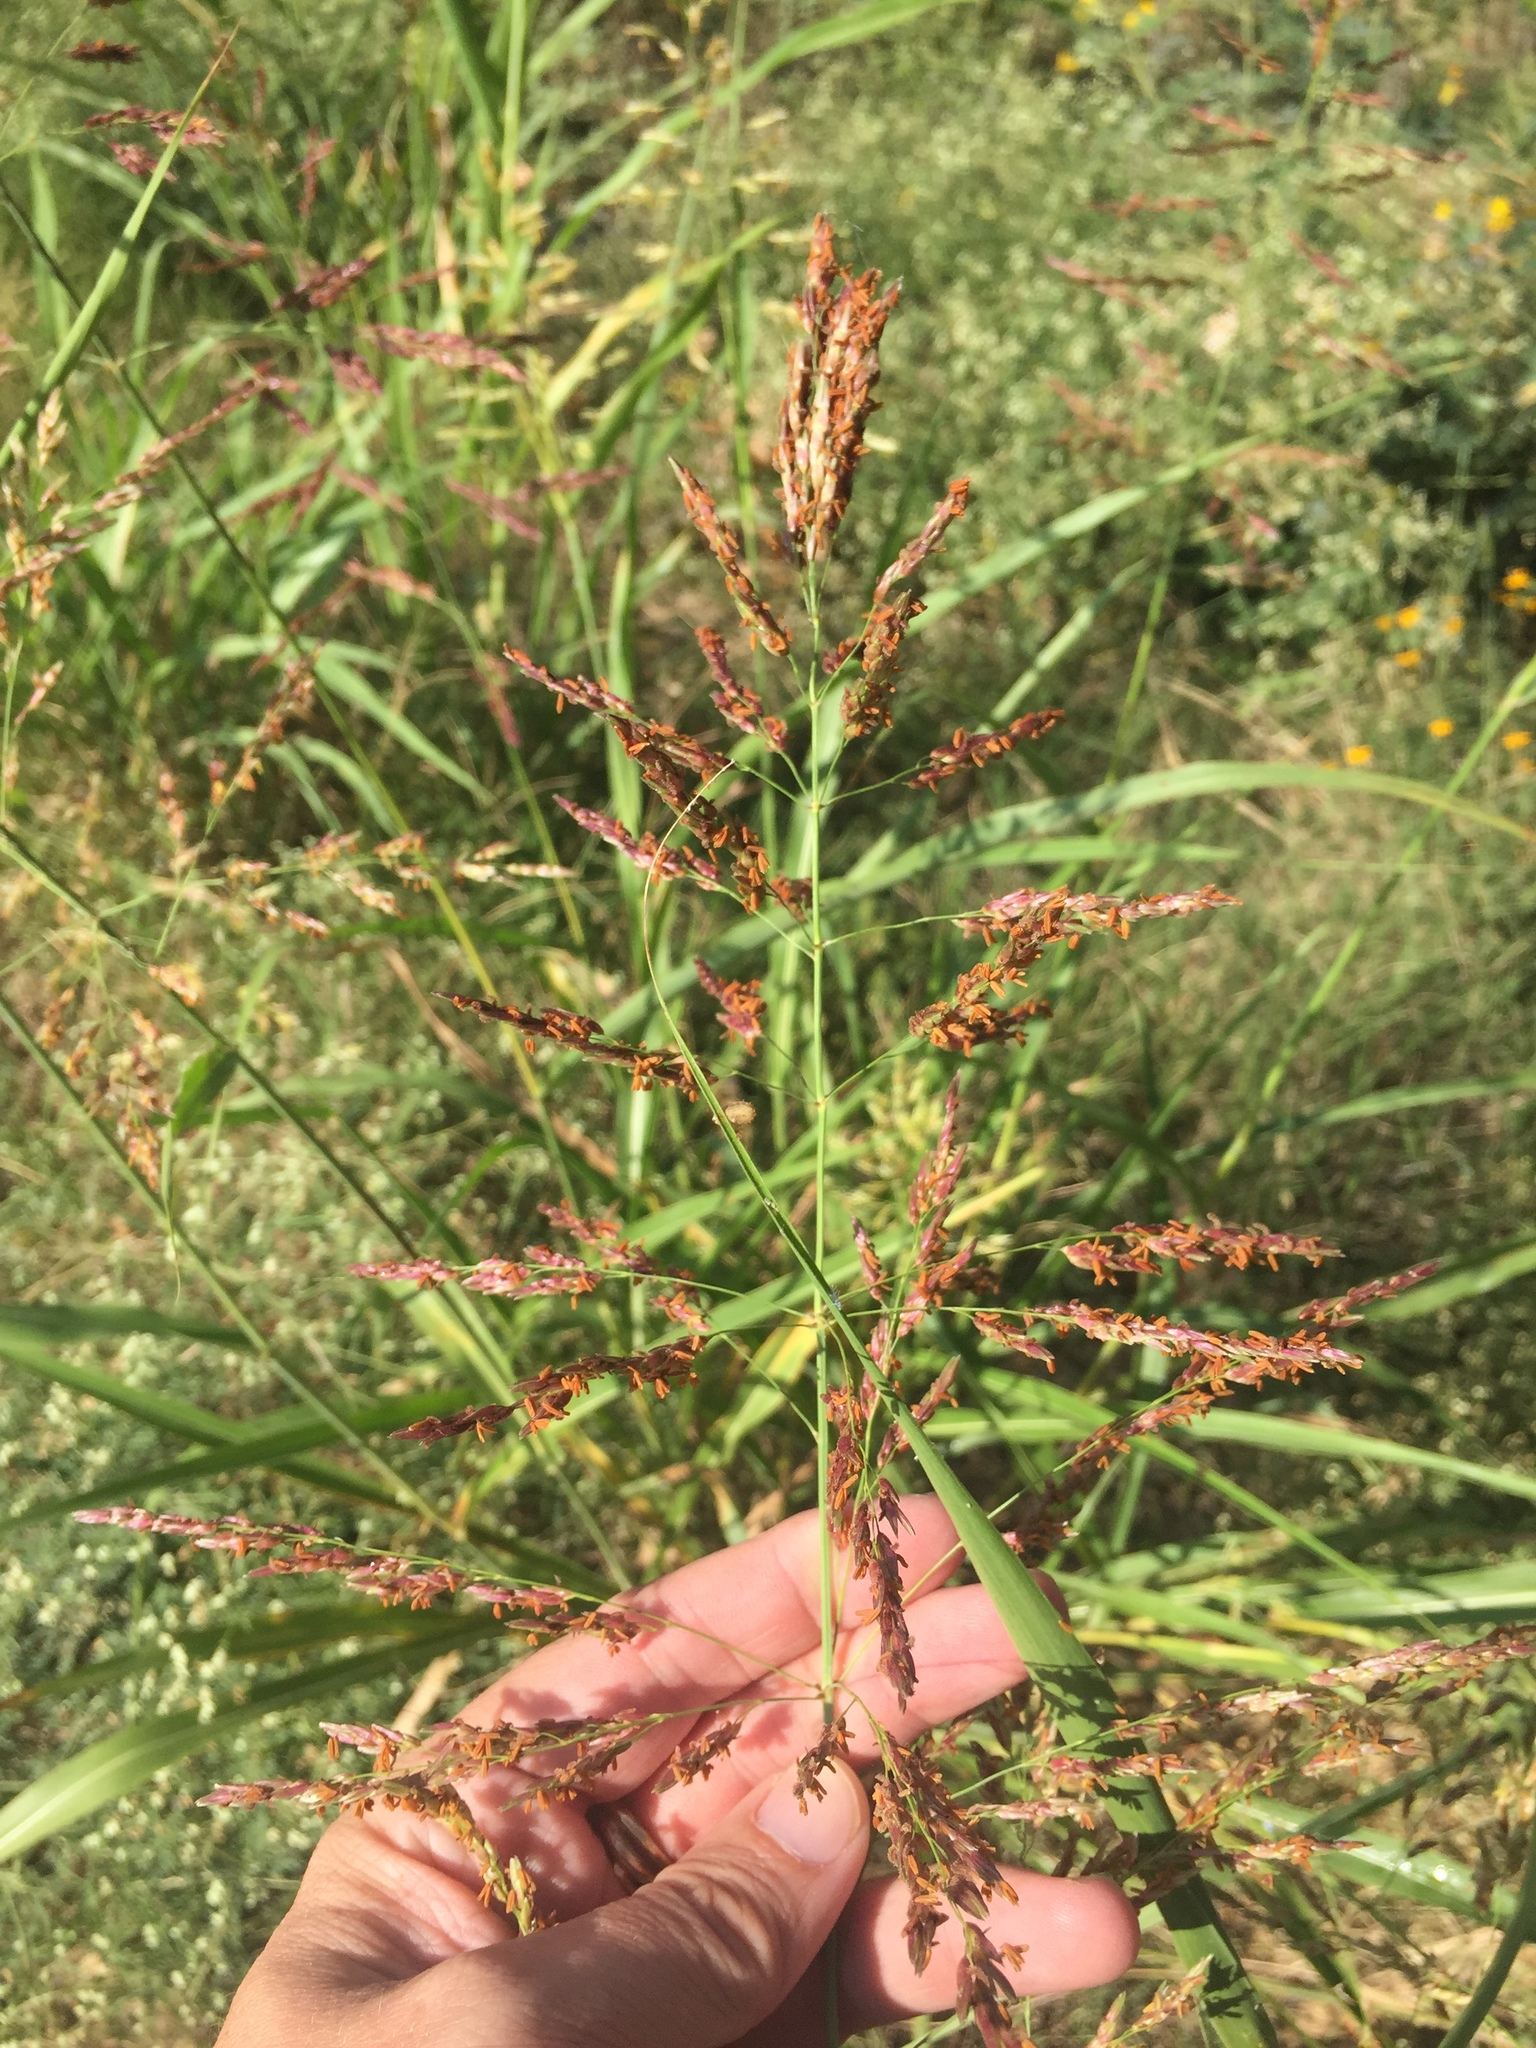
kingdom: Plantae
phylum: Tracheophyta
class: Liliopsida
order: Poales
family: Poaceae
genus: Sorghum
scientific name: Sorghum halepense
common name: Johnson-grass
